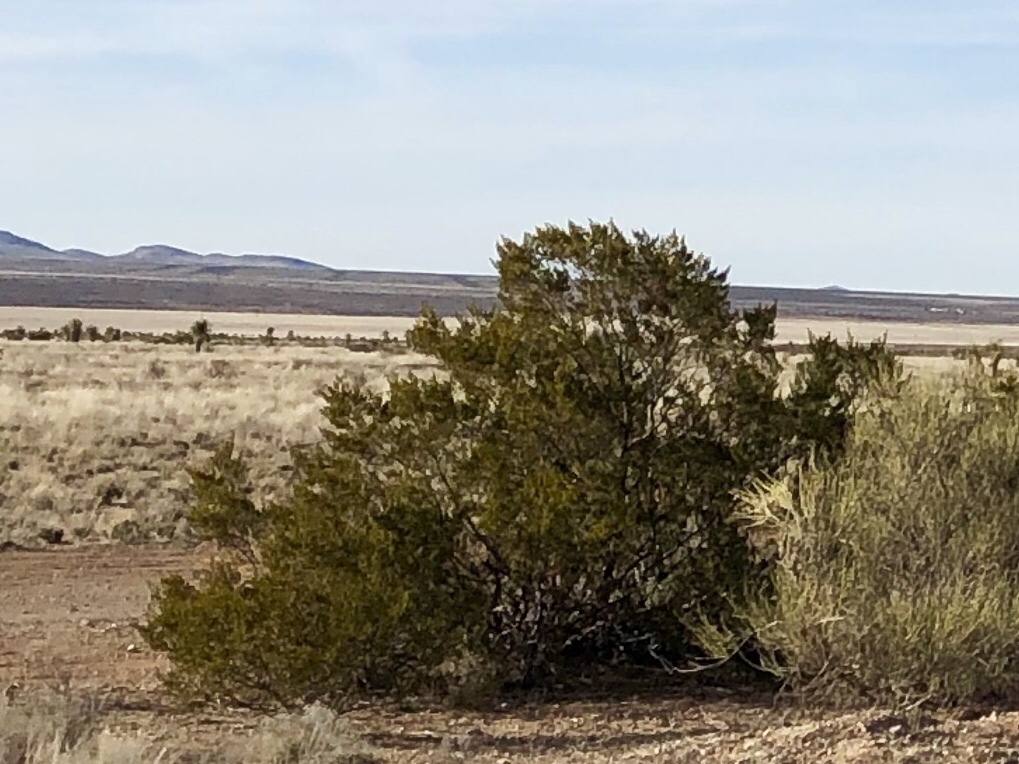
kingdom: Plantae
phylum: Tracheophyta
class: Magnoliopsida
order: Zygophyllales
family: Zygophyllaceae
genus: Larrea
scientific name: Larrea tridentata
